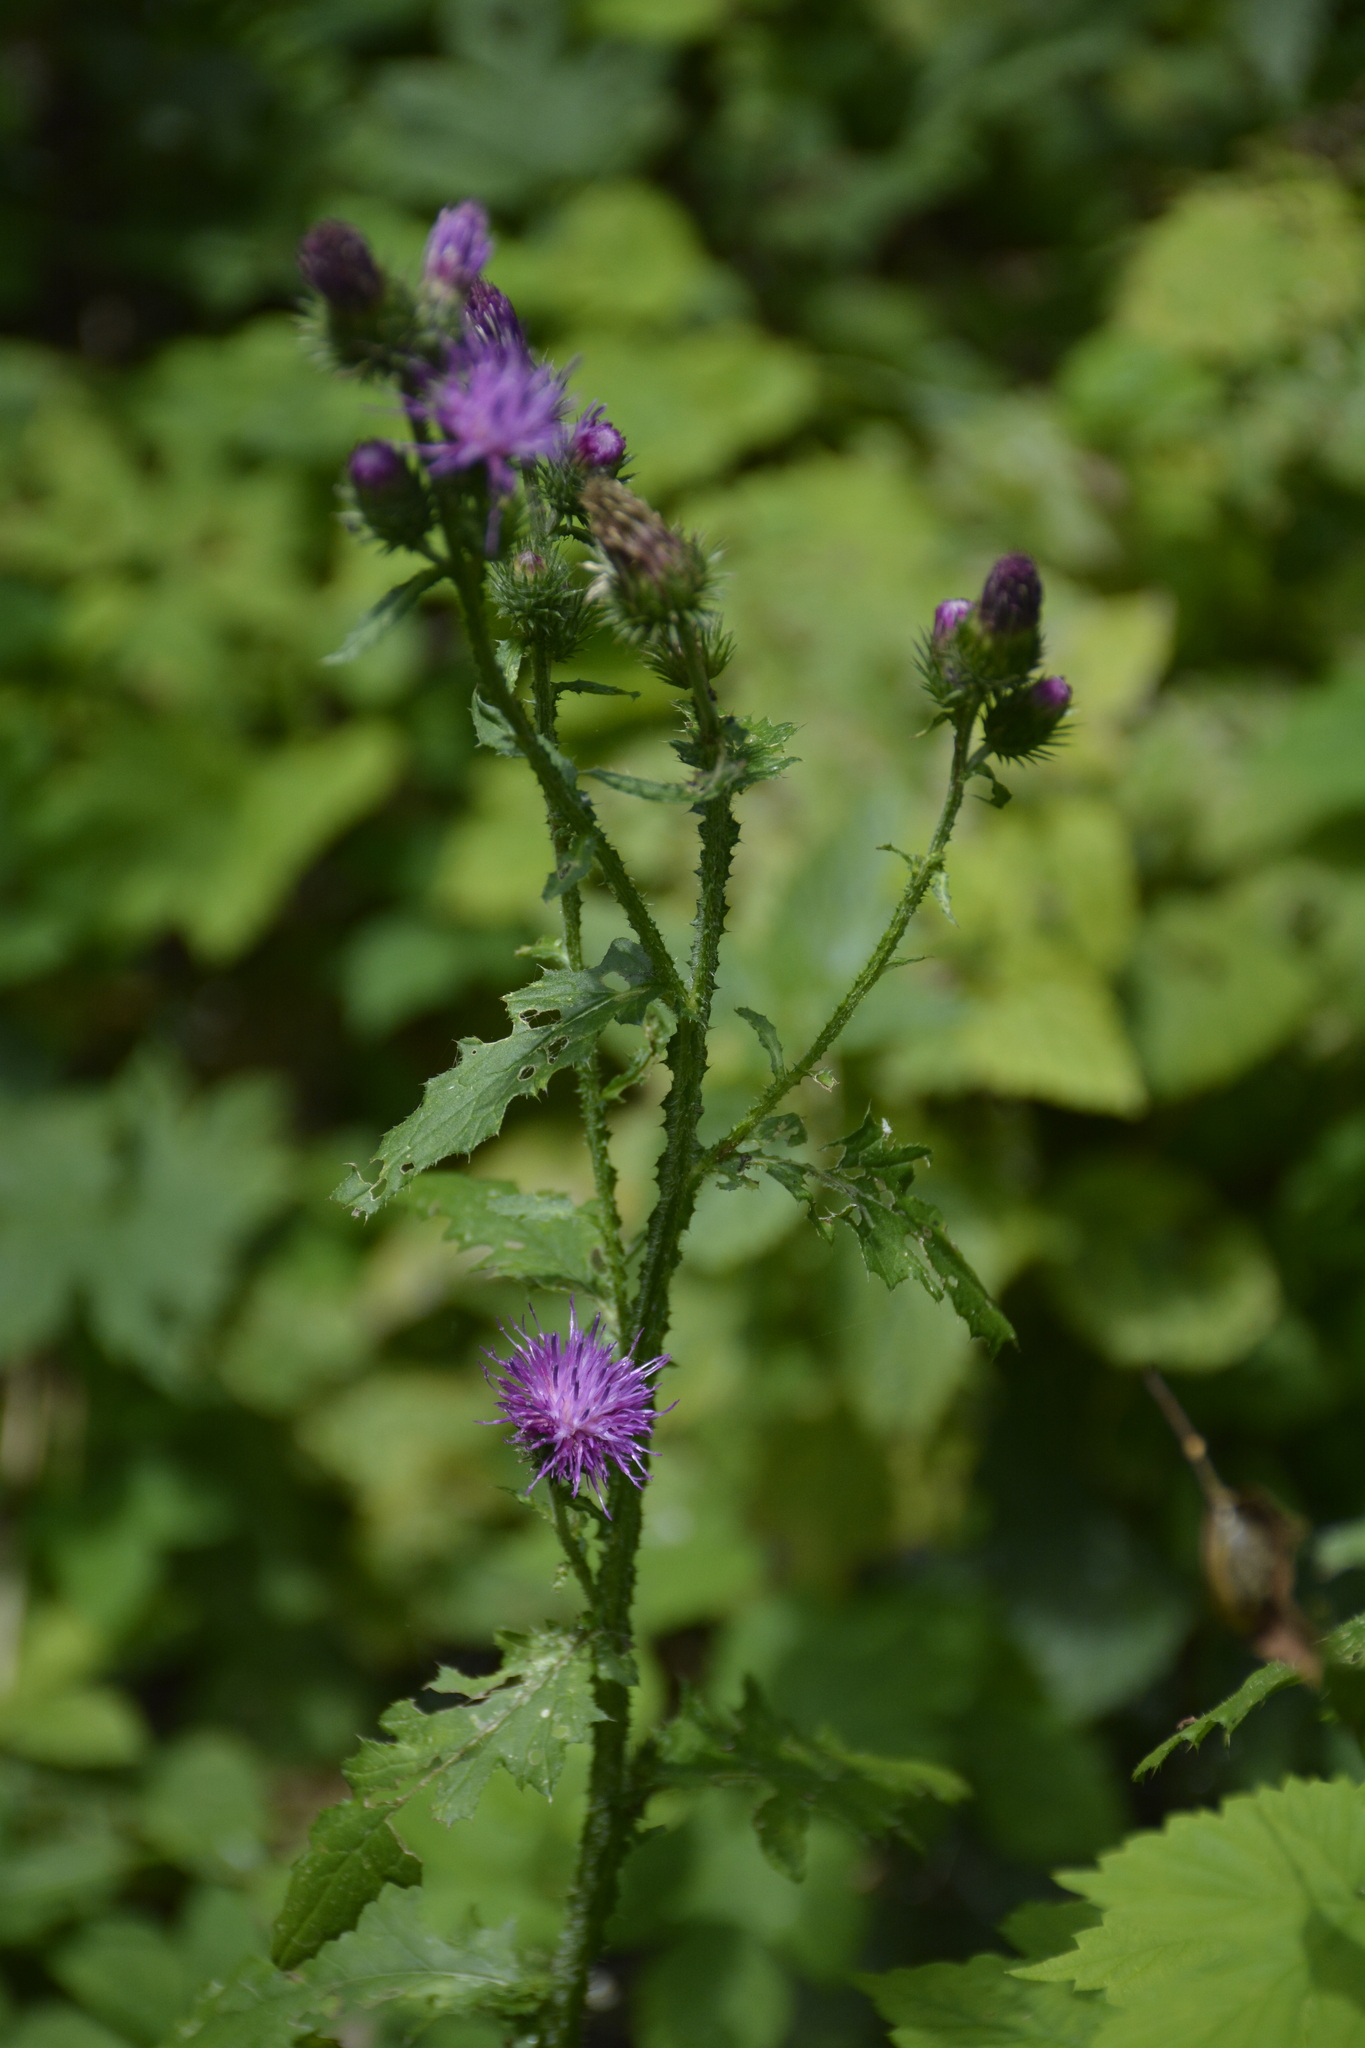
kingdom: Plantae
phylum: Tracheophyta
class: Magnoliopsida
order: Asterales
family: Asteraceae
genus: Carduus
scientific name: Carduus crispus
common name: Welted thistle
